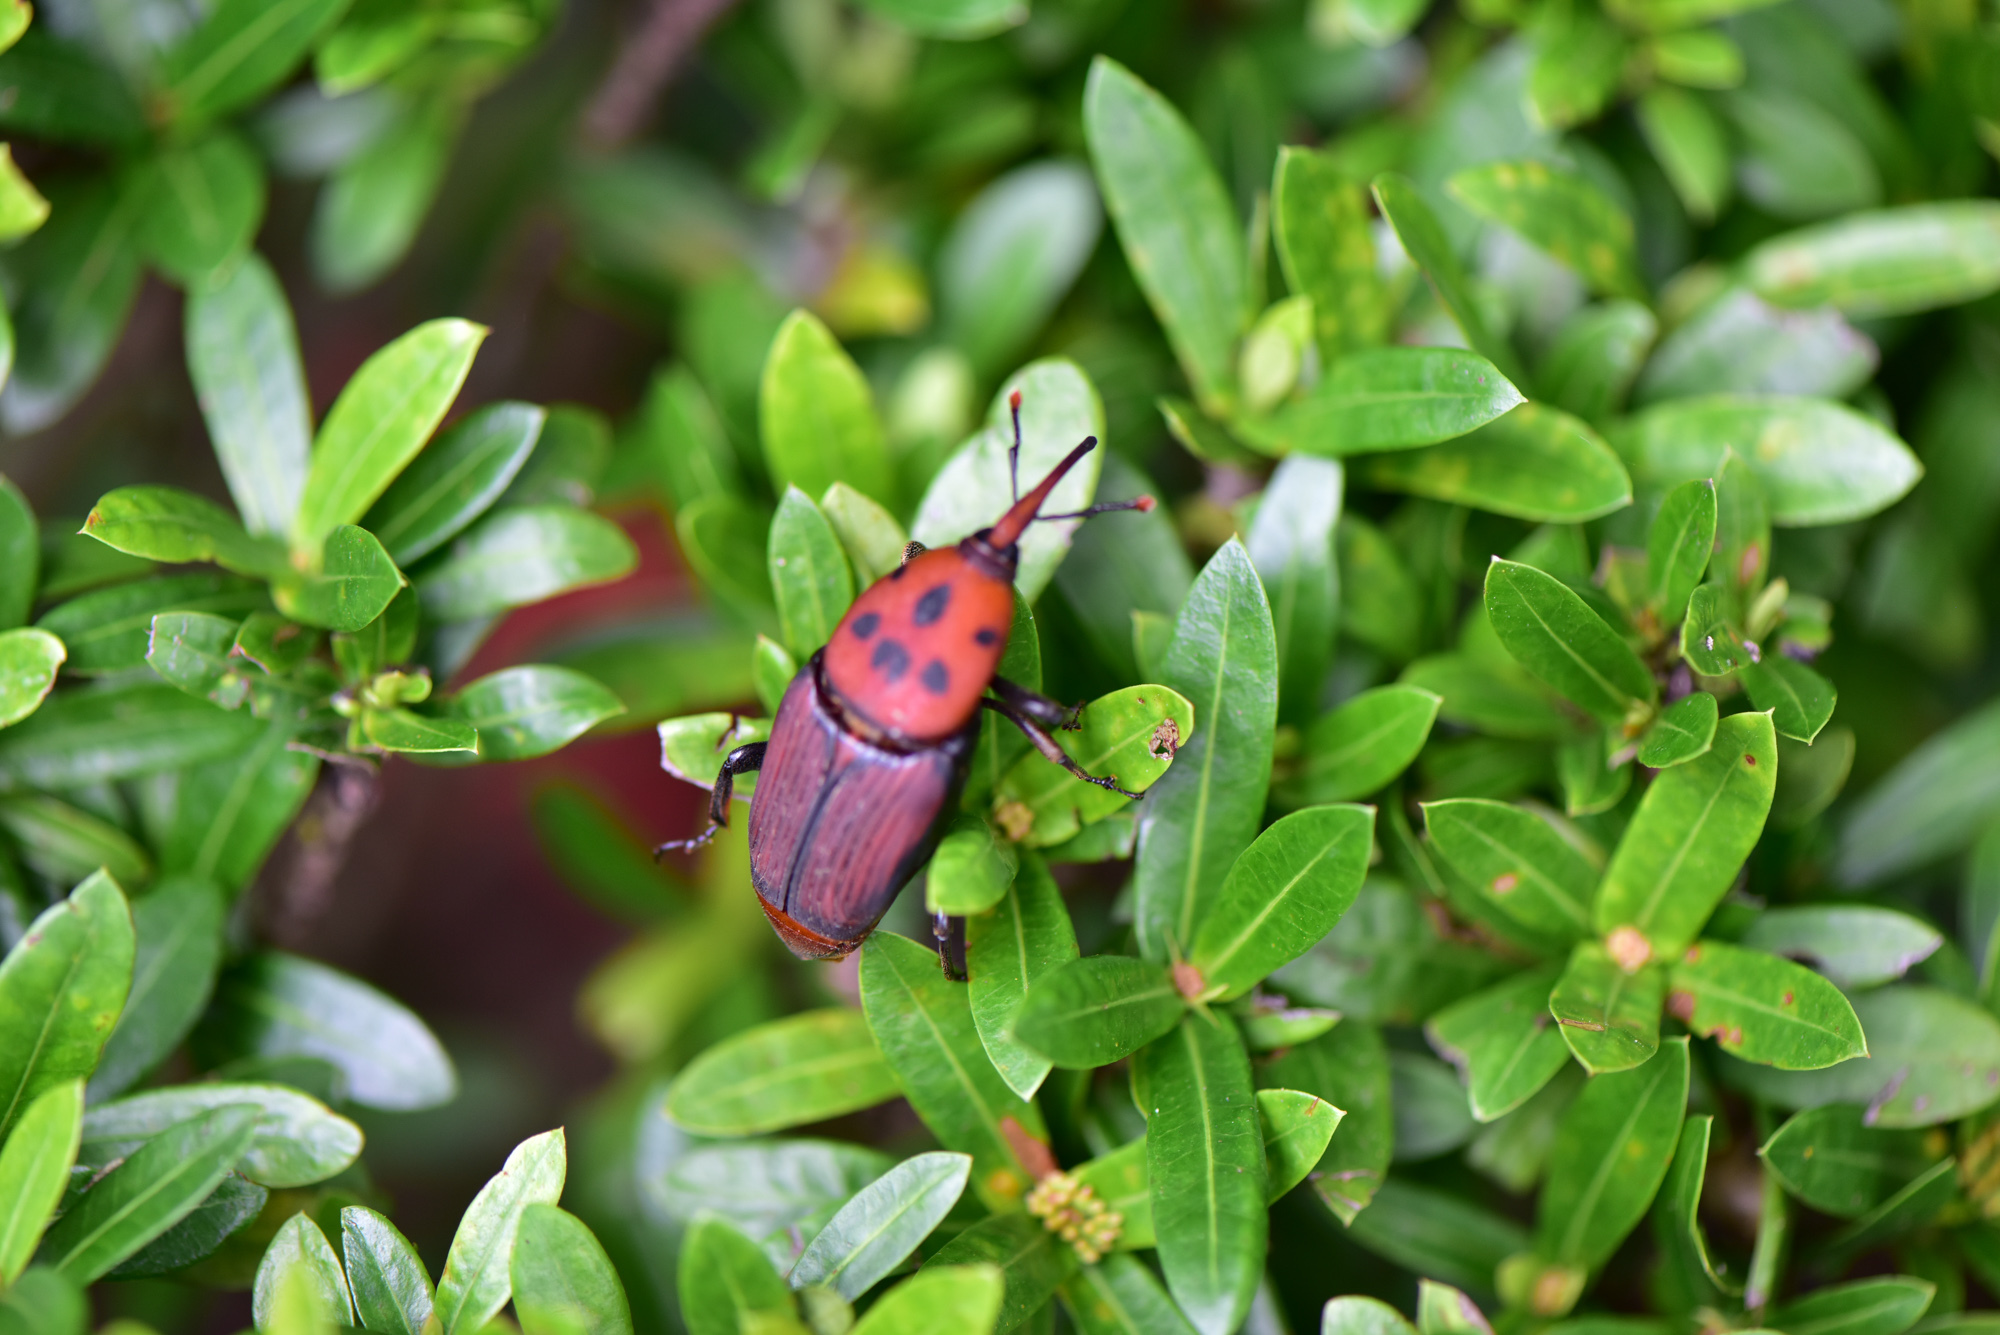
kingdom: Animalia
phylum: Arthropoda
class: Insecta
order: Coleoptera
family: Dryophthoridae
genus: Rhynchophorus
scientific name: Rhynchophorus ferrugineus
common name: Red palm weevil
